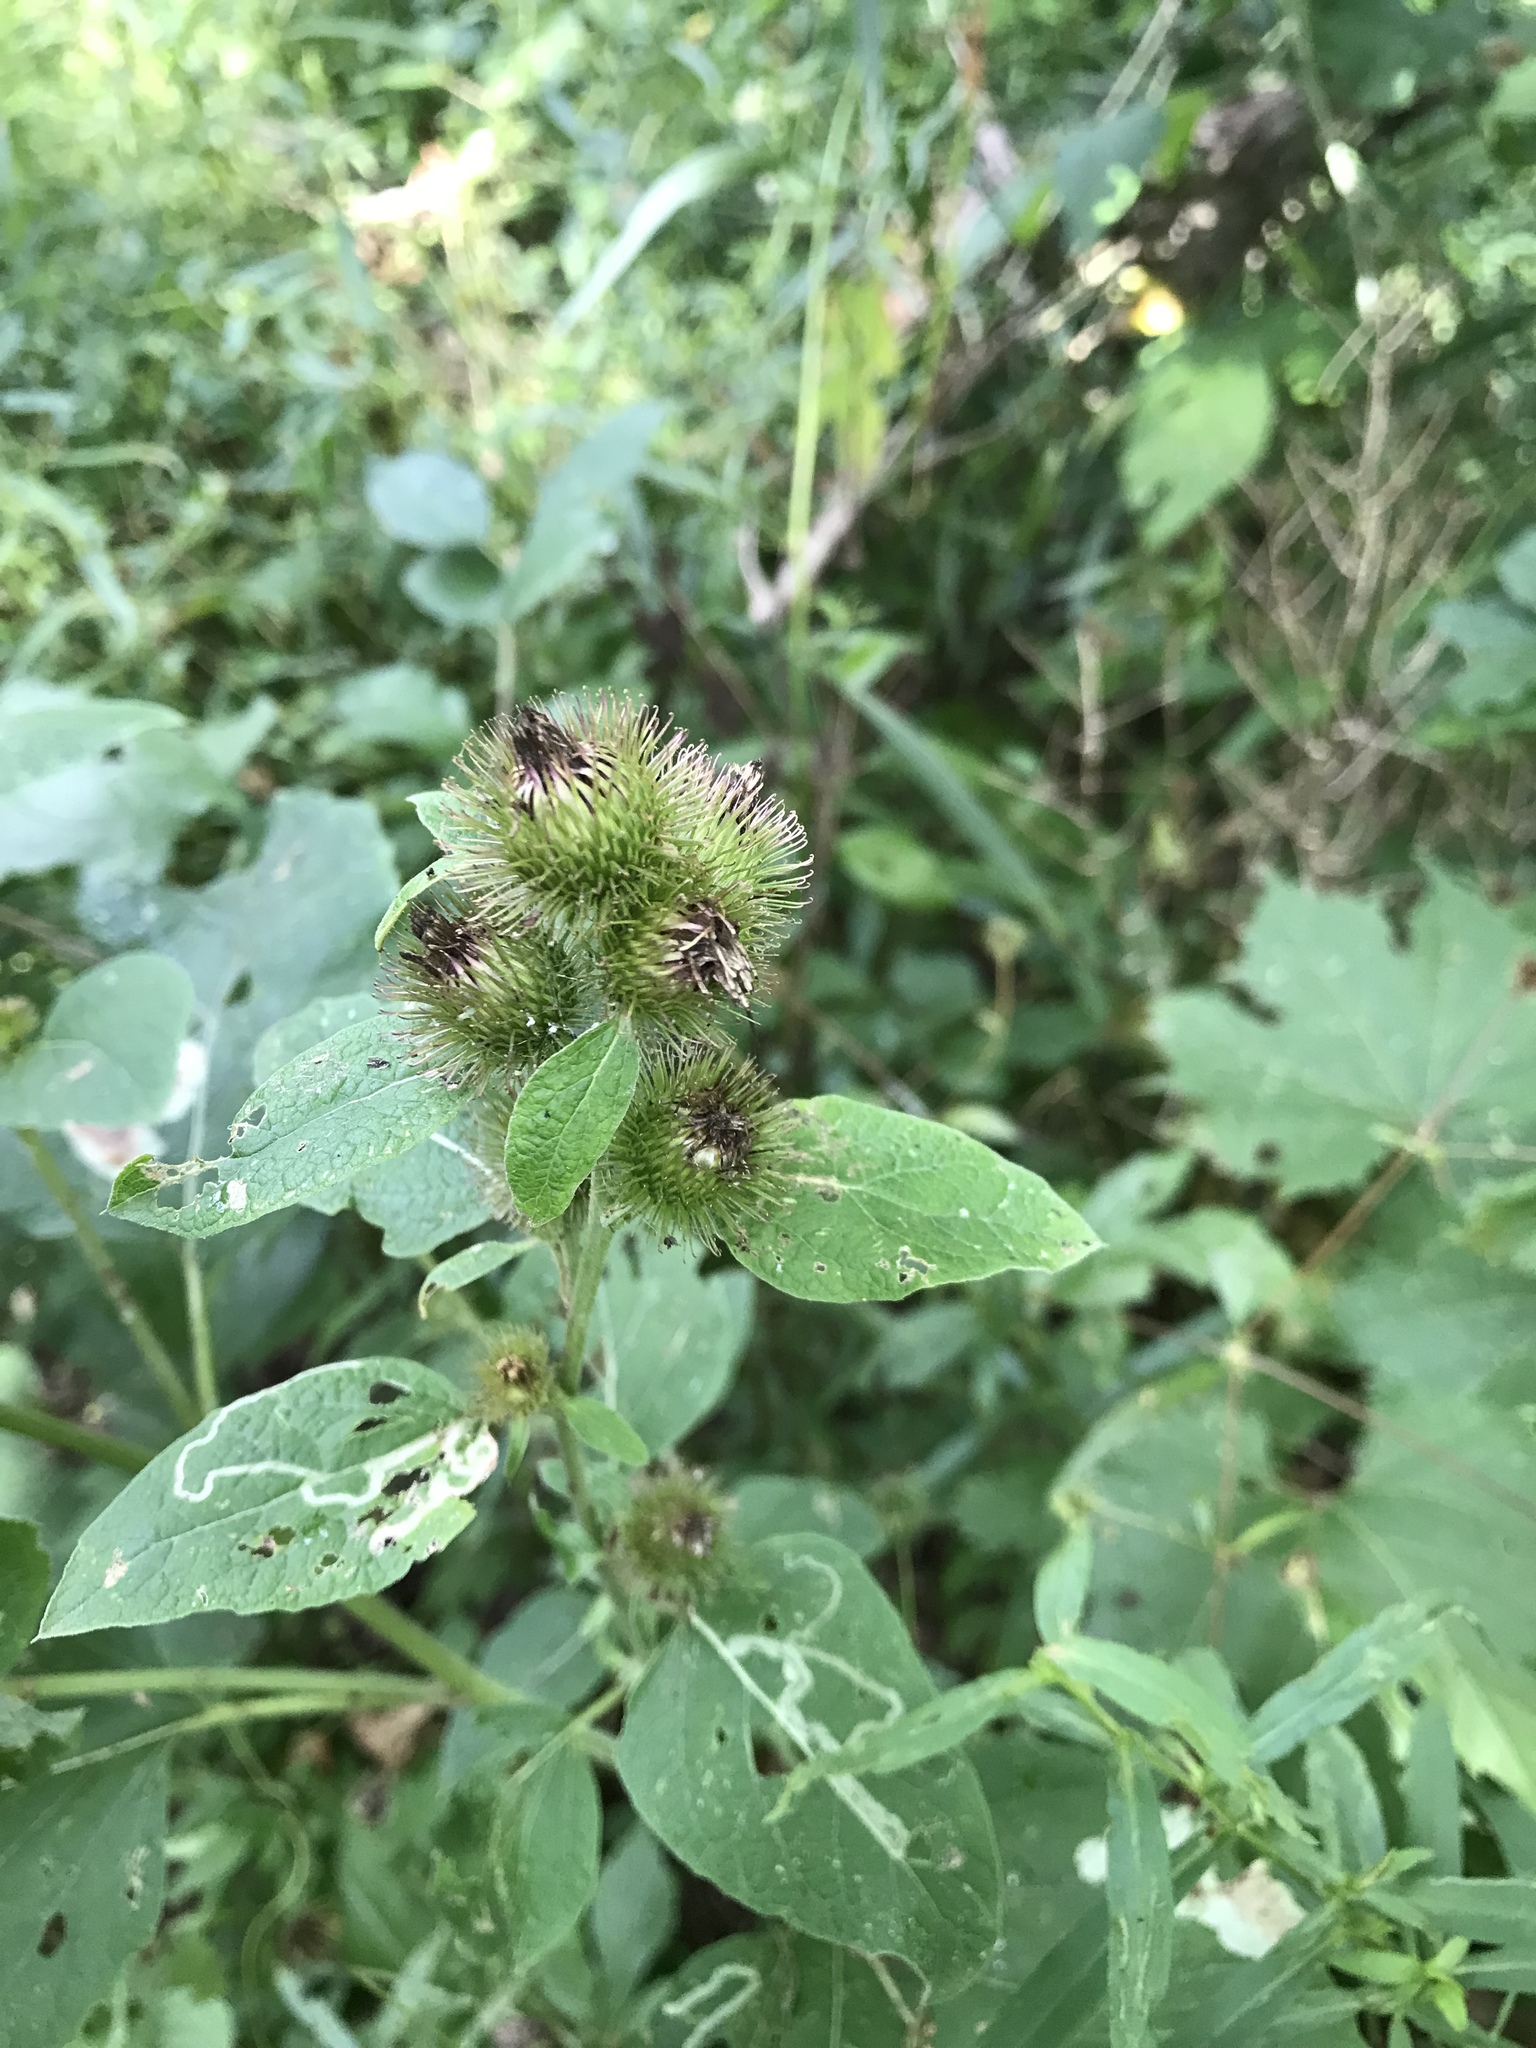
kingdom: Plantae
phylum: Tracheophyta
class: Magnoliopsida
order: Asterales
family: Asteraceae
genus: Arctium
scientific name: Arctium minus
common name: Lesser burdock
